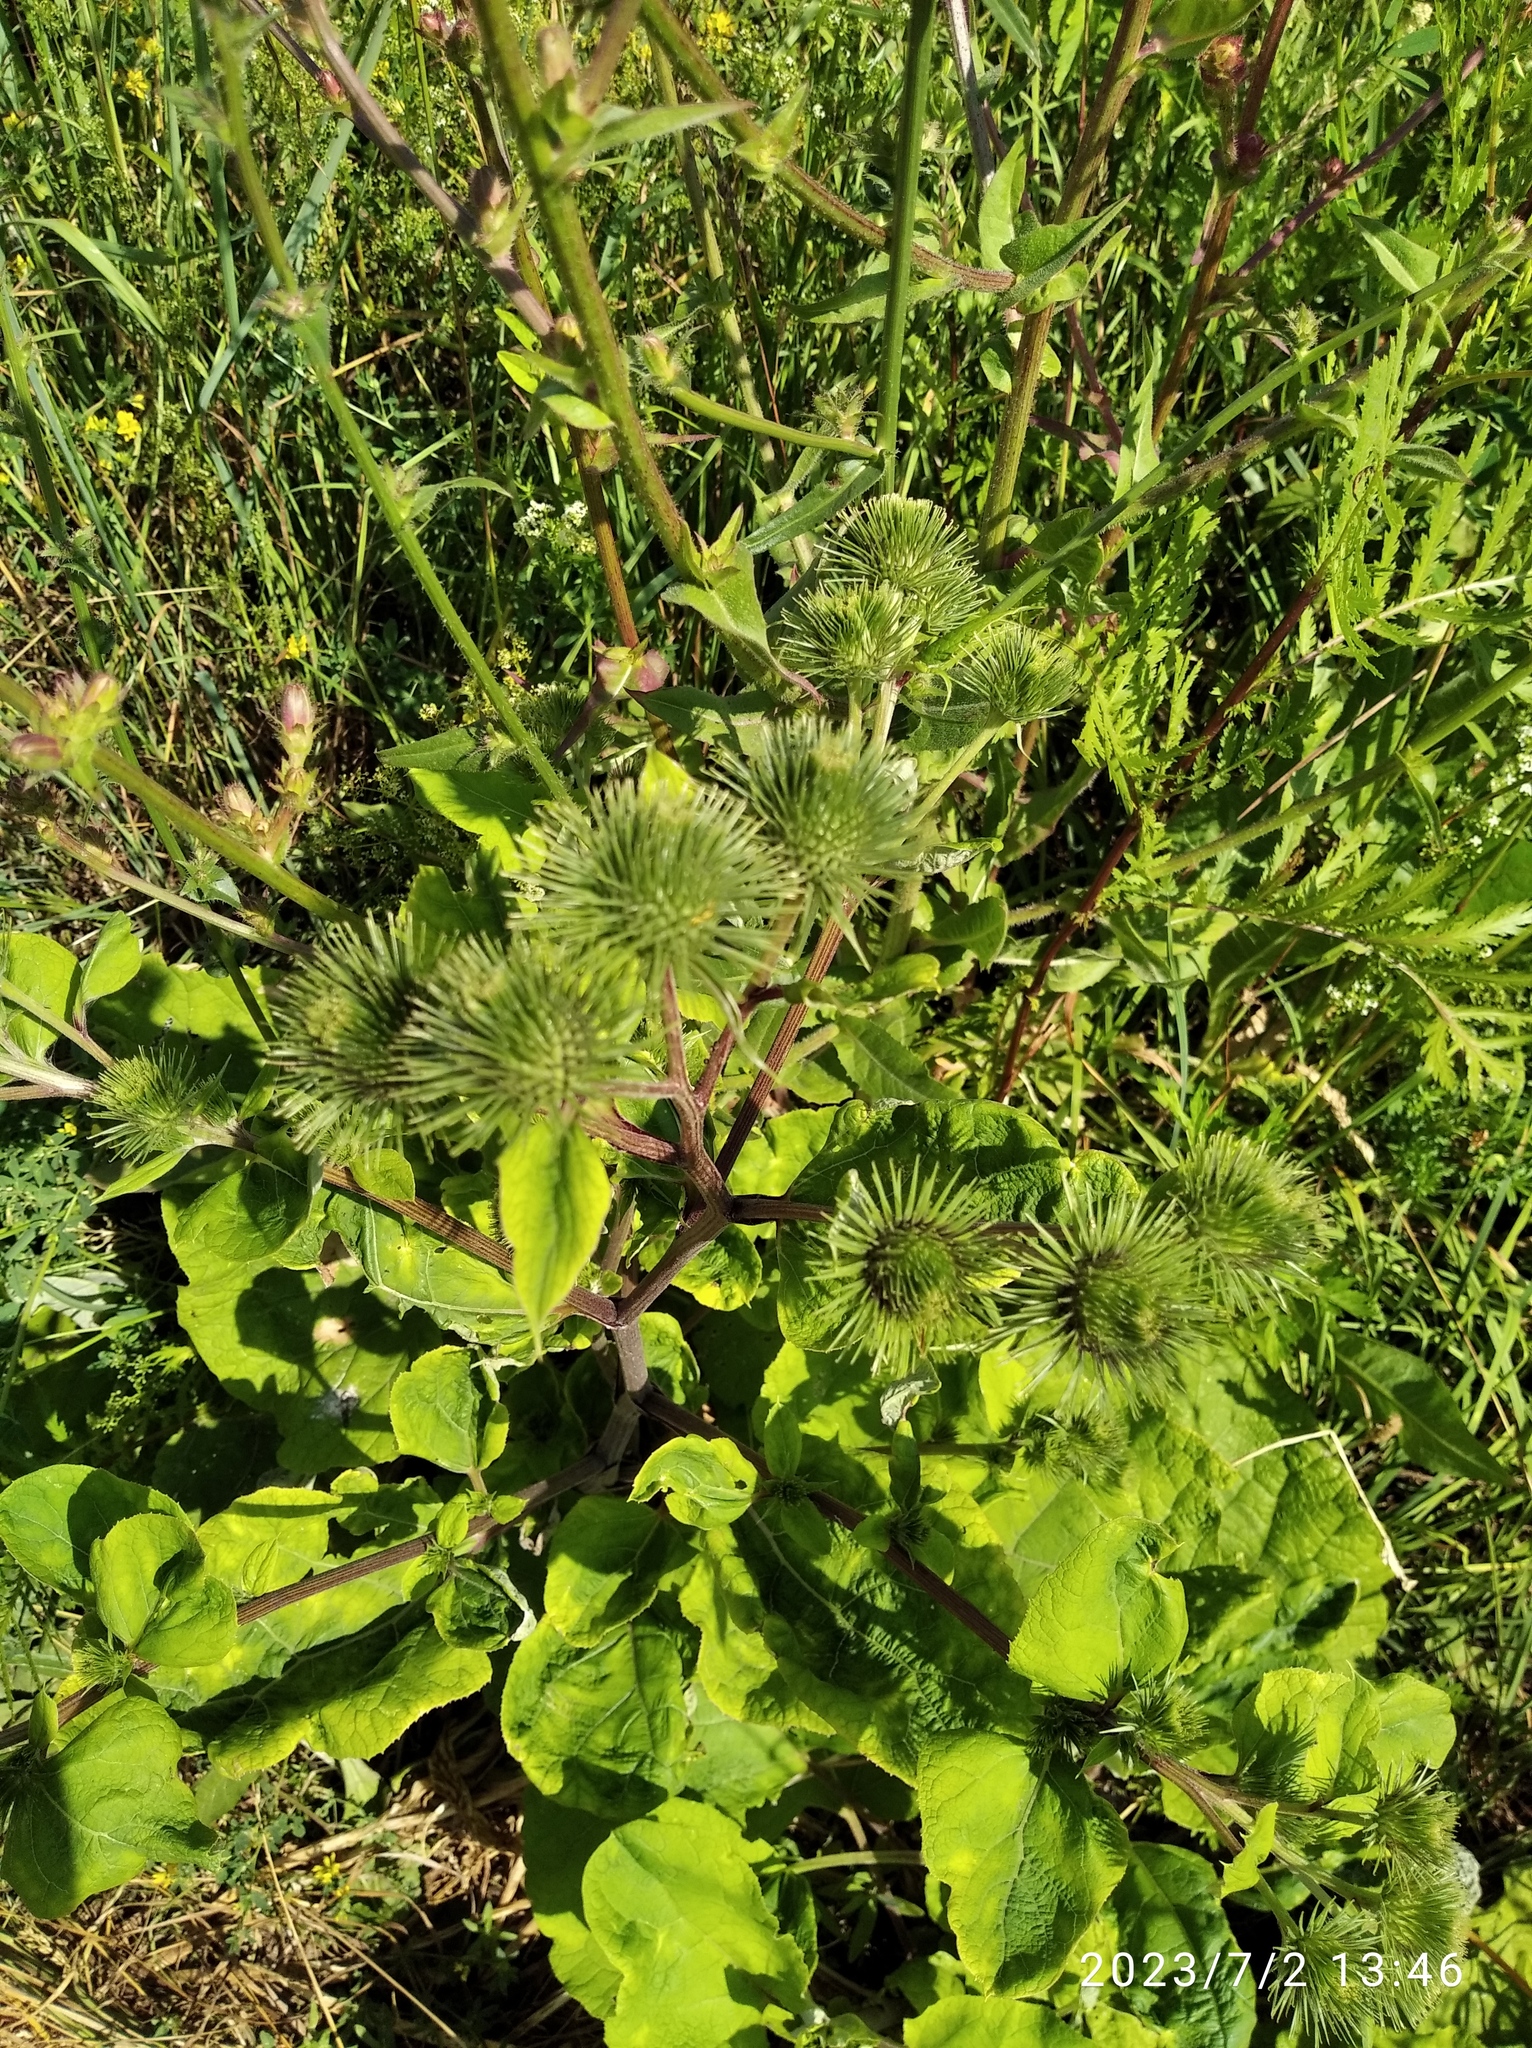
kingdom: Plantae
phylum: Tracheophyta
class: Magnoliopsida
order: Asterales
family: Asteraceae
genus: Arctium
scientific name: Arctium lappa
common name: Greater burdock
